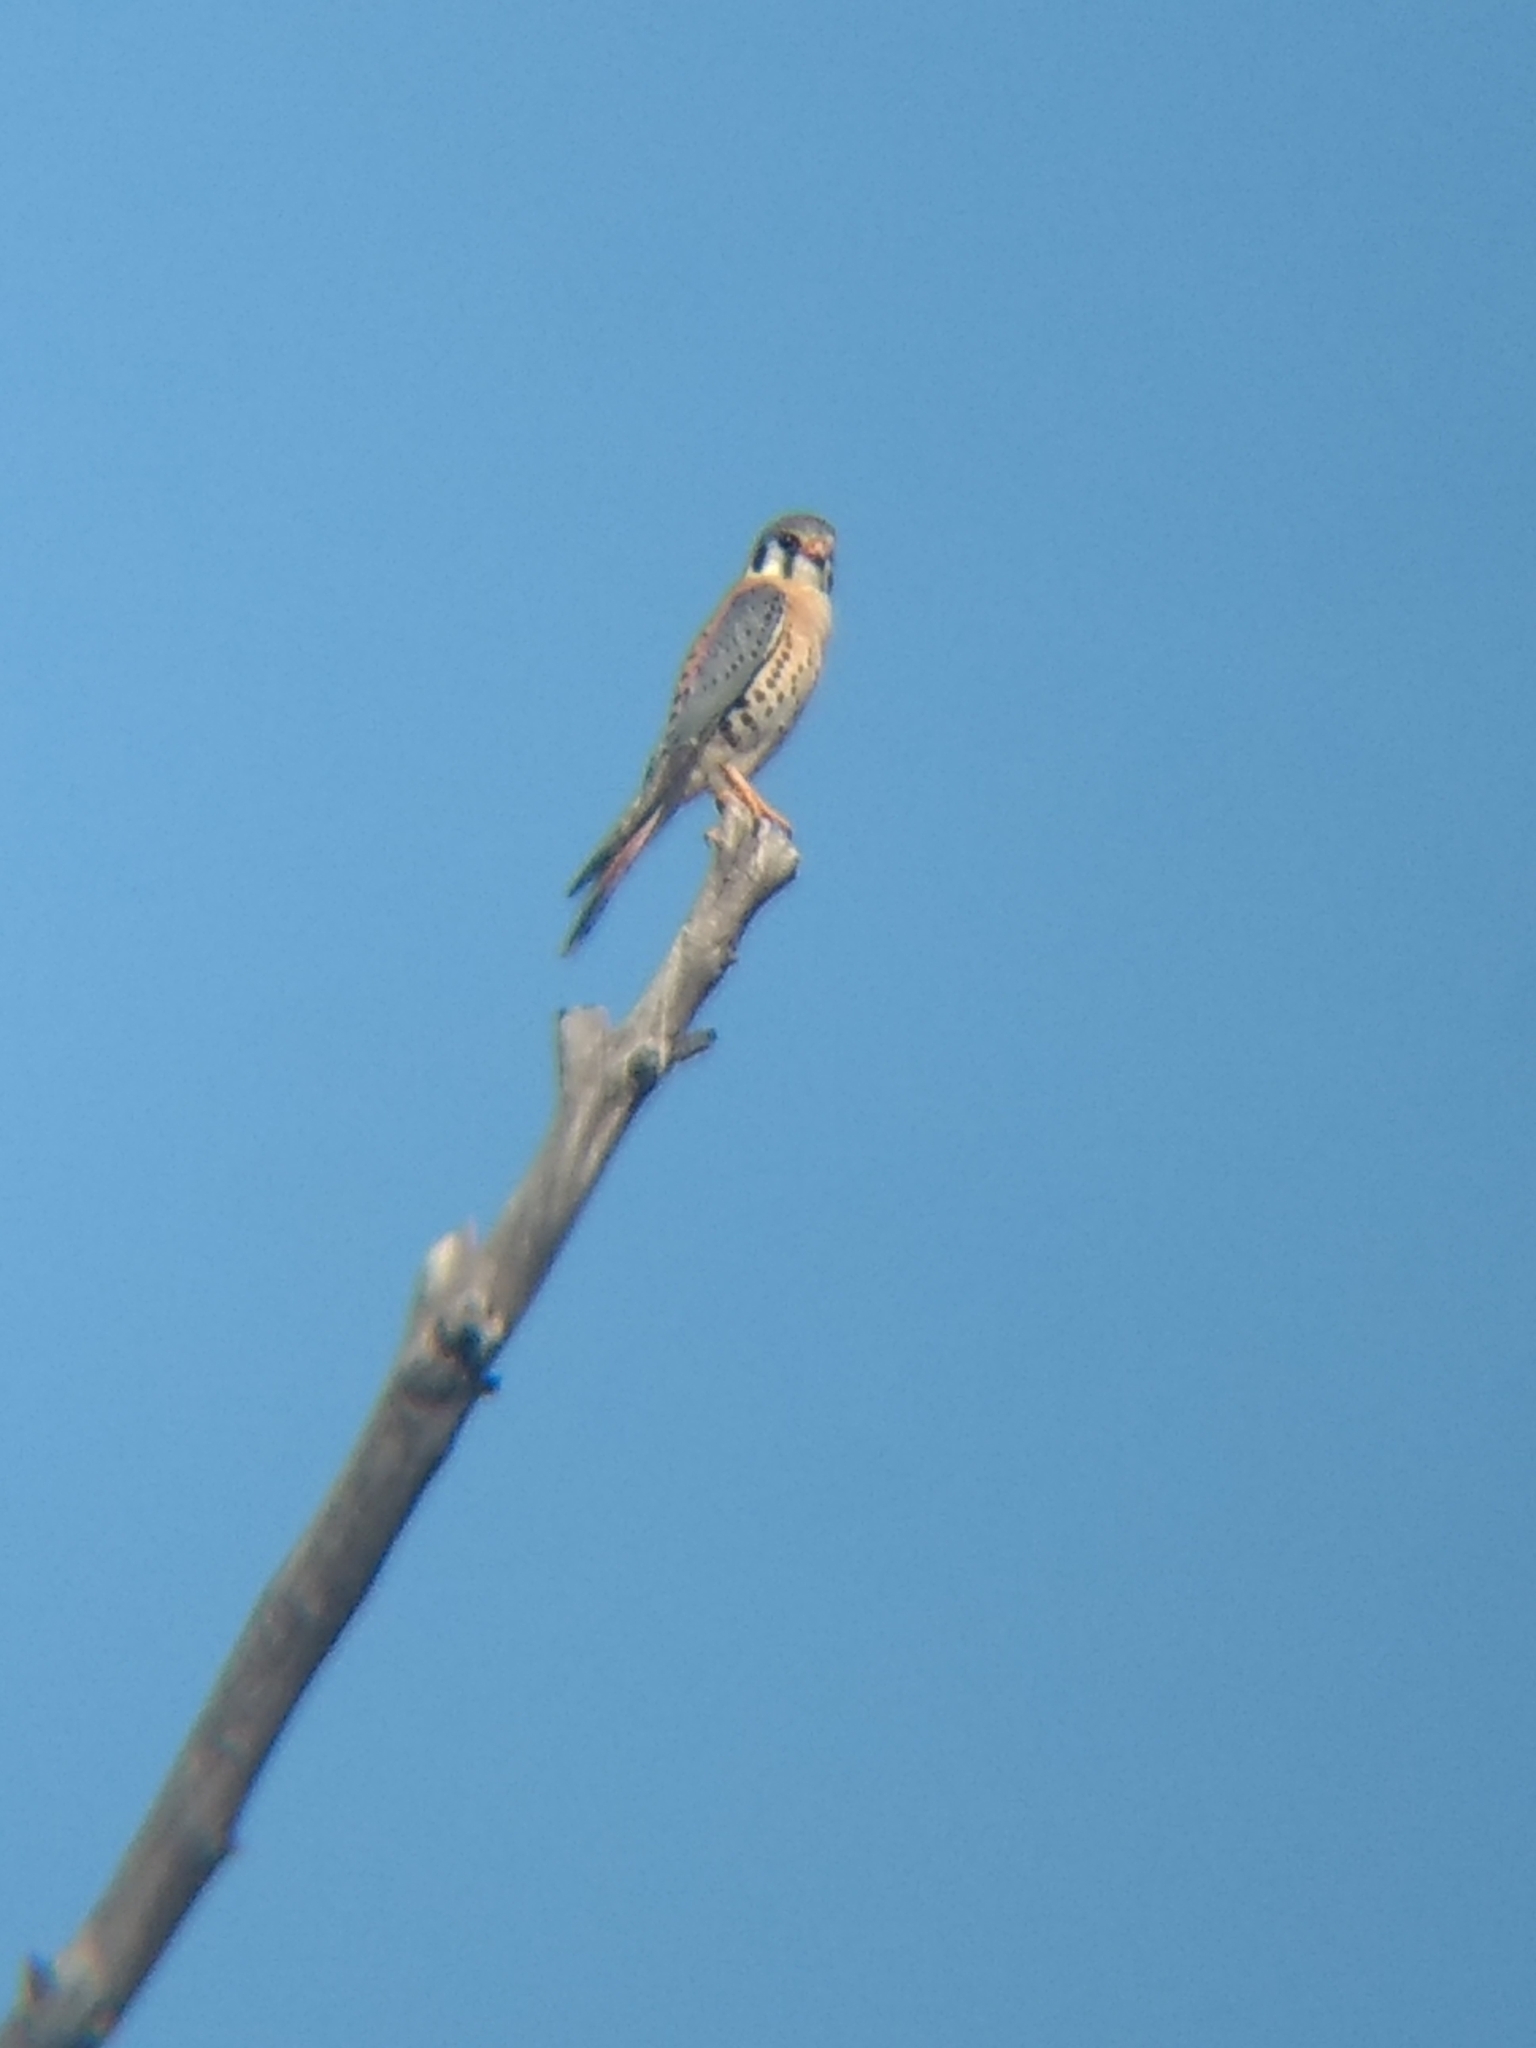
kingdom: Animalia
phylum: Chordata
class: Aves
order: Falconiformes
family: Falconidae
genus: Falco
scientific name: Falco sparverius
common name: American kestrel
